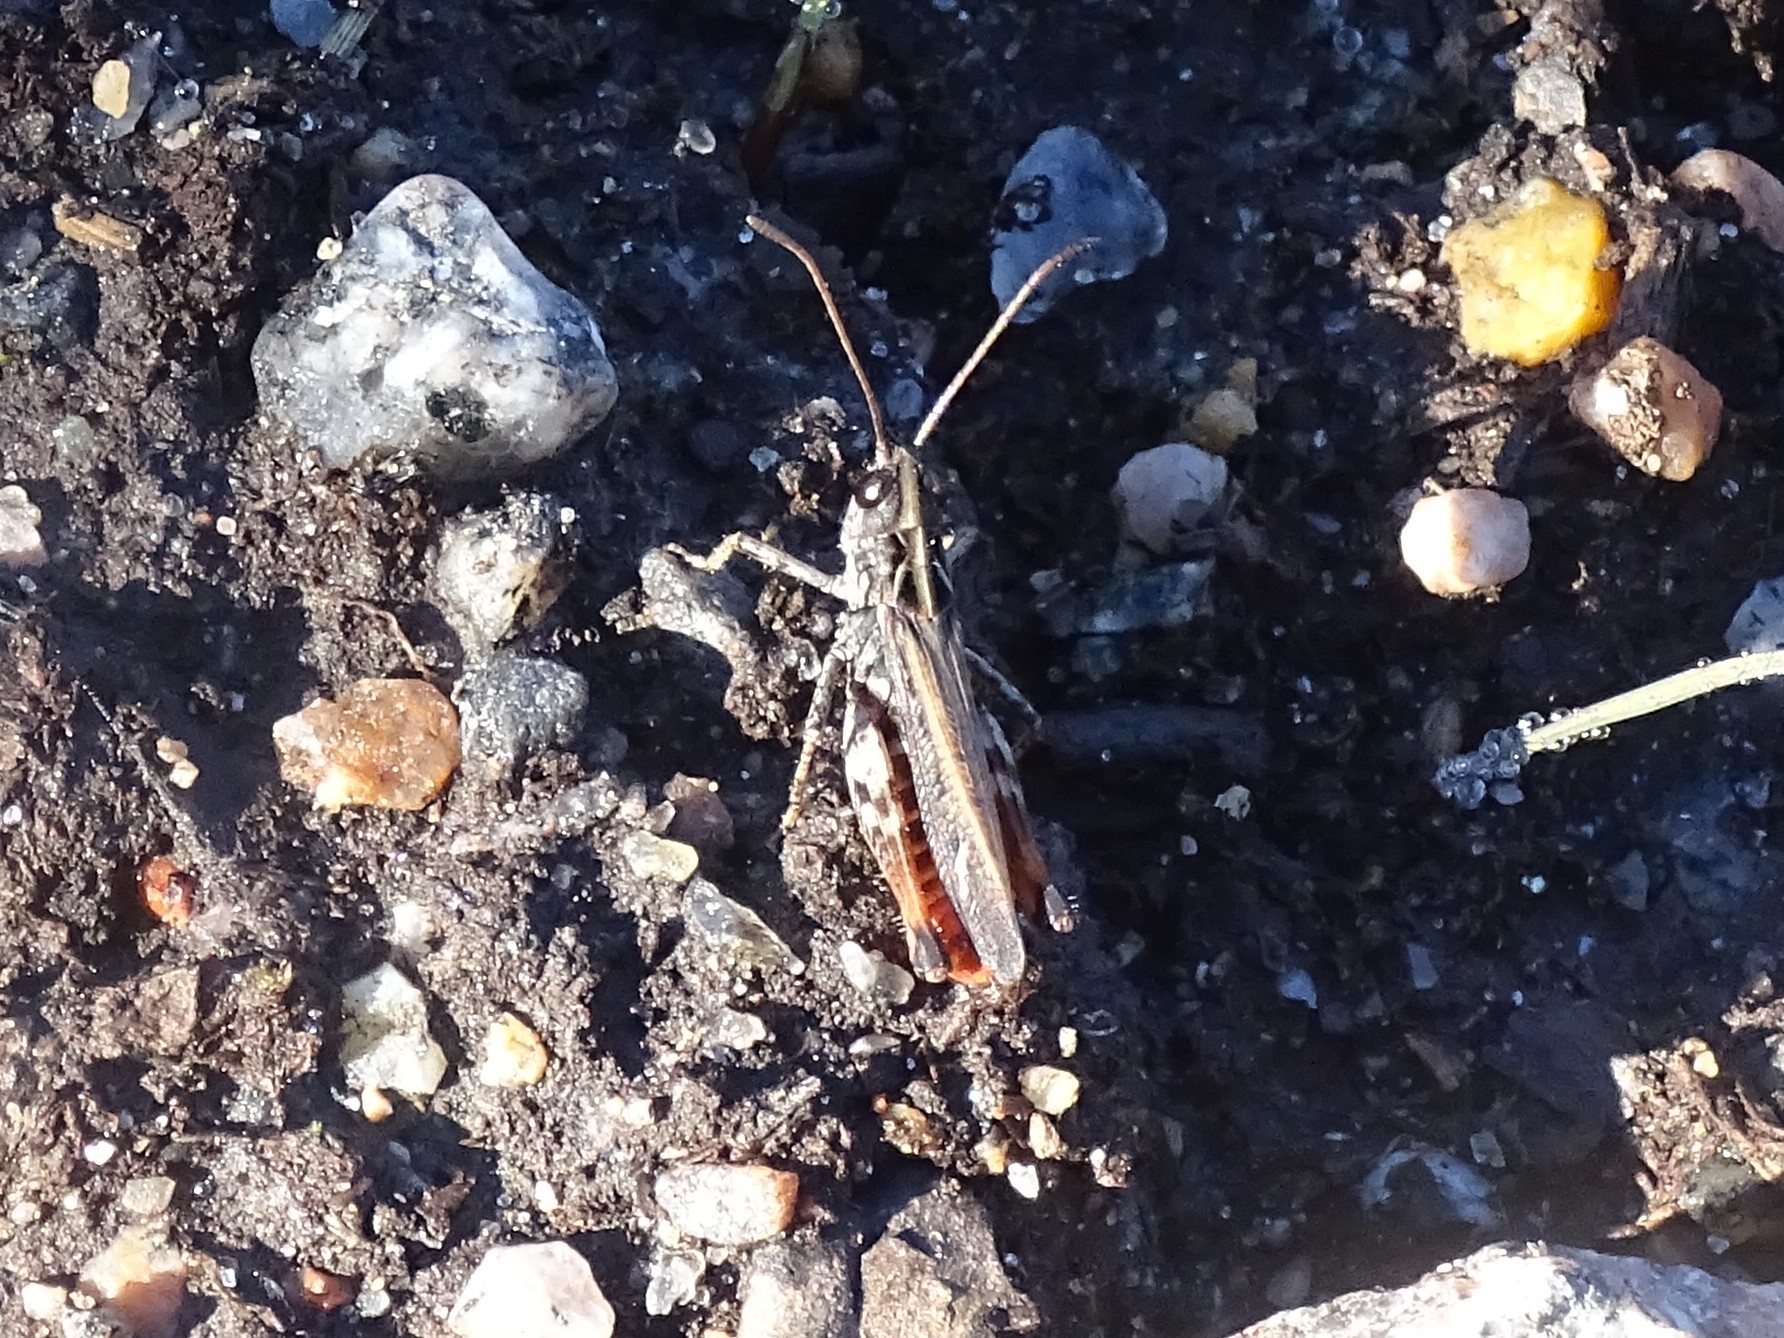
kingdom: Animalia
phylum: Arthropoda
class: Insecta
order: Orthoptera
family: Acrididae
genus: Myrmeleotettix
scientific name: Myrmeleotettix maculatus
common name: Mottled grasshopper
